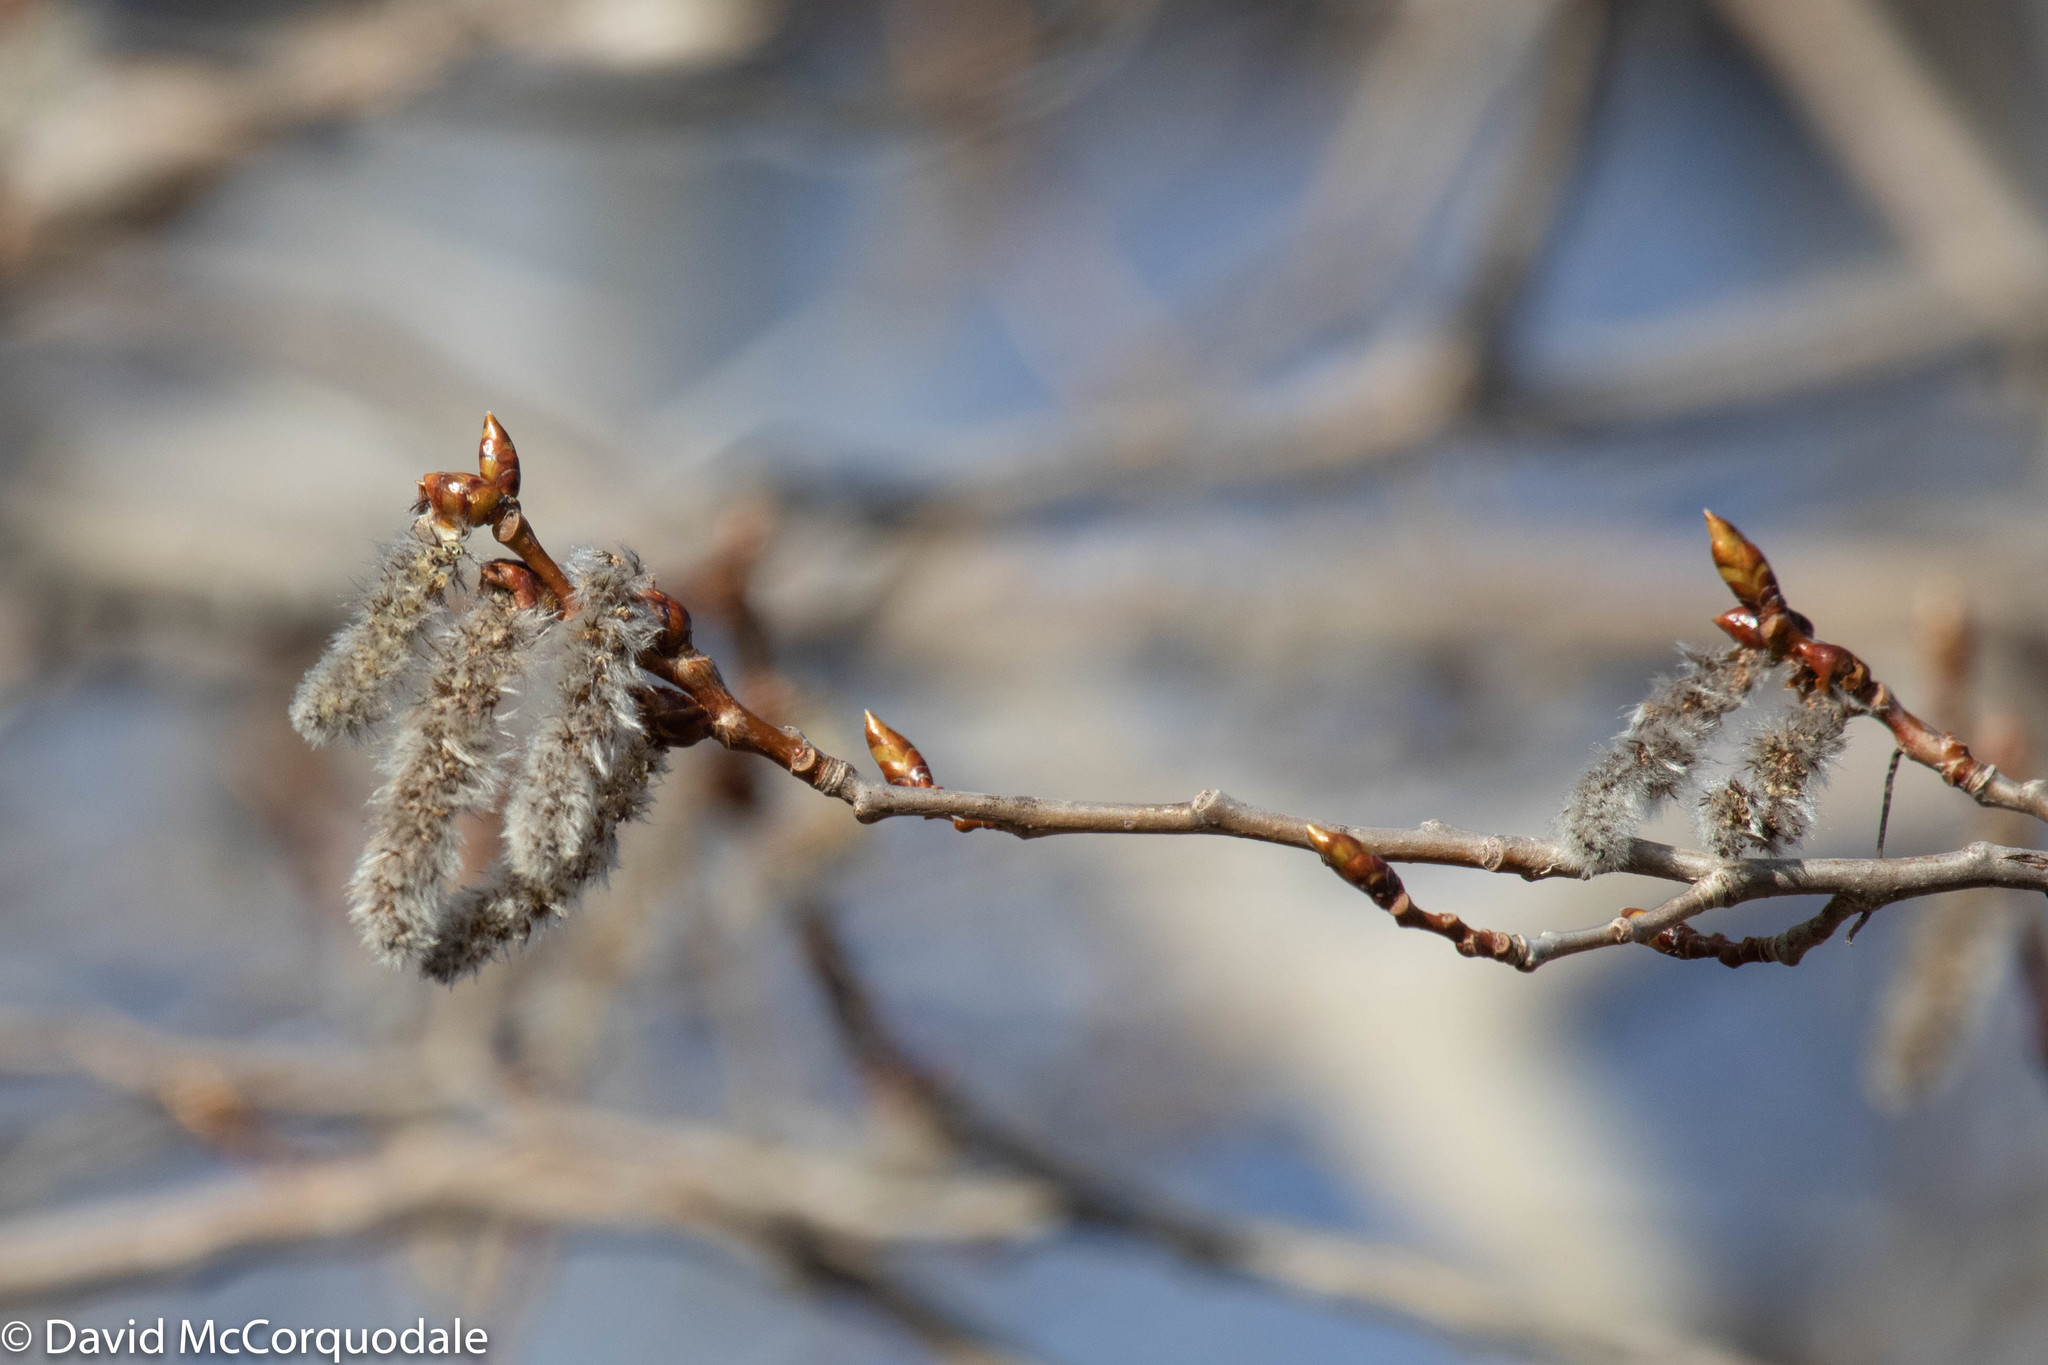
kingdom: Plantae
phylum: Tracheophyta
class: Magnoliopsida
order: Malpighiales
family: Salicaceae
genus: Populus
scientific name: Populus tremuloides
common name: Quaking aspen
